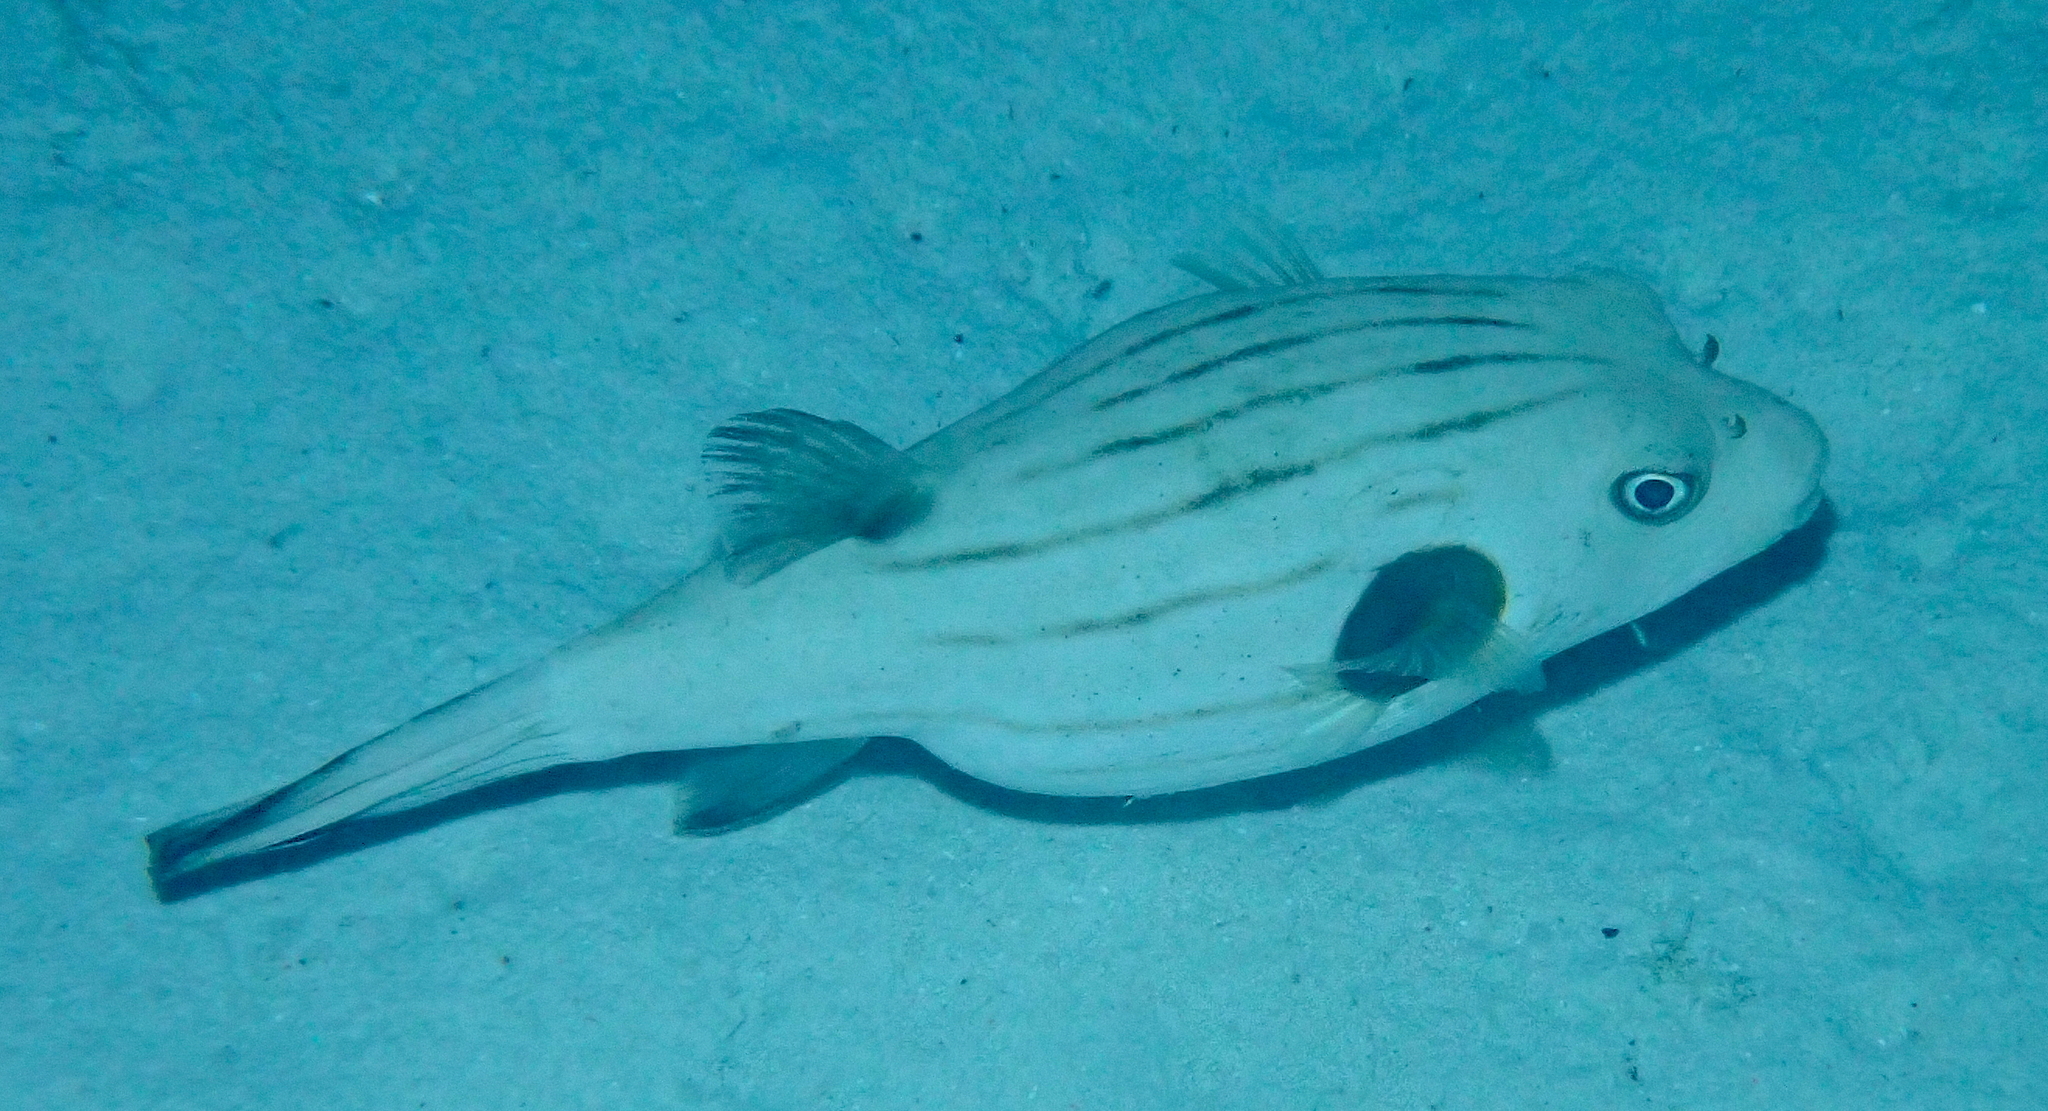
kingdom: Animalia
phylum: Chordata
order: Tetraodontiformes
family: Tetraodontidae
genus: Arothron
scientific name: Arothron manilensis
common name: Narrow-lined puffer
